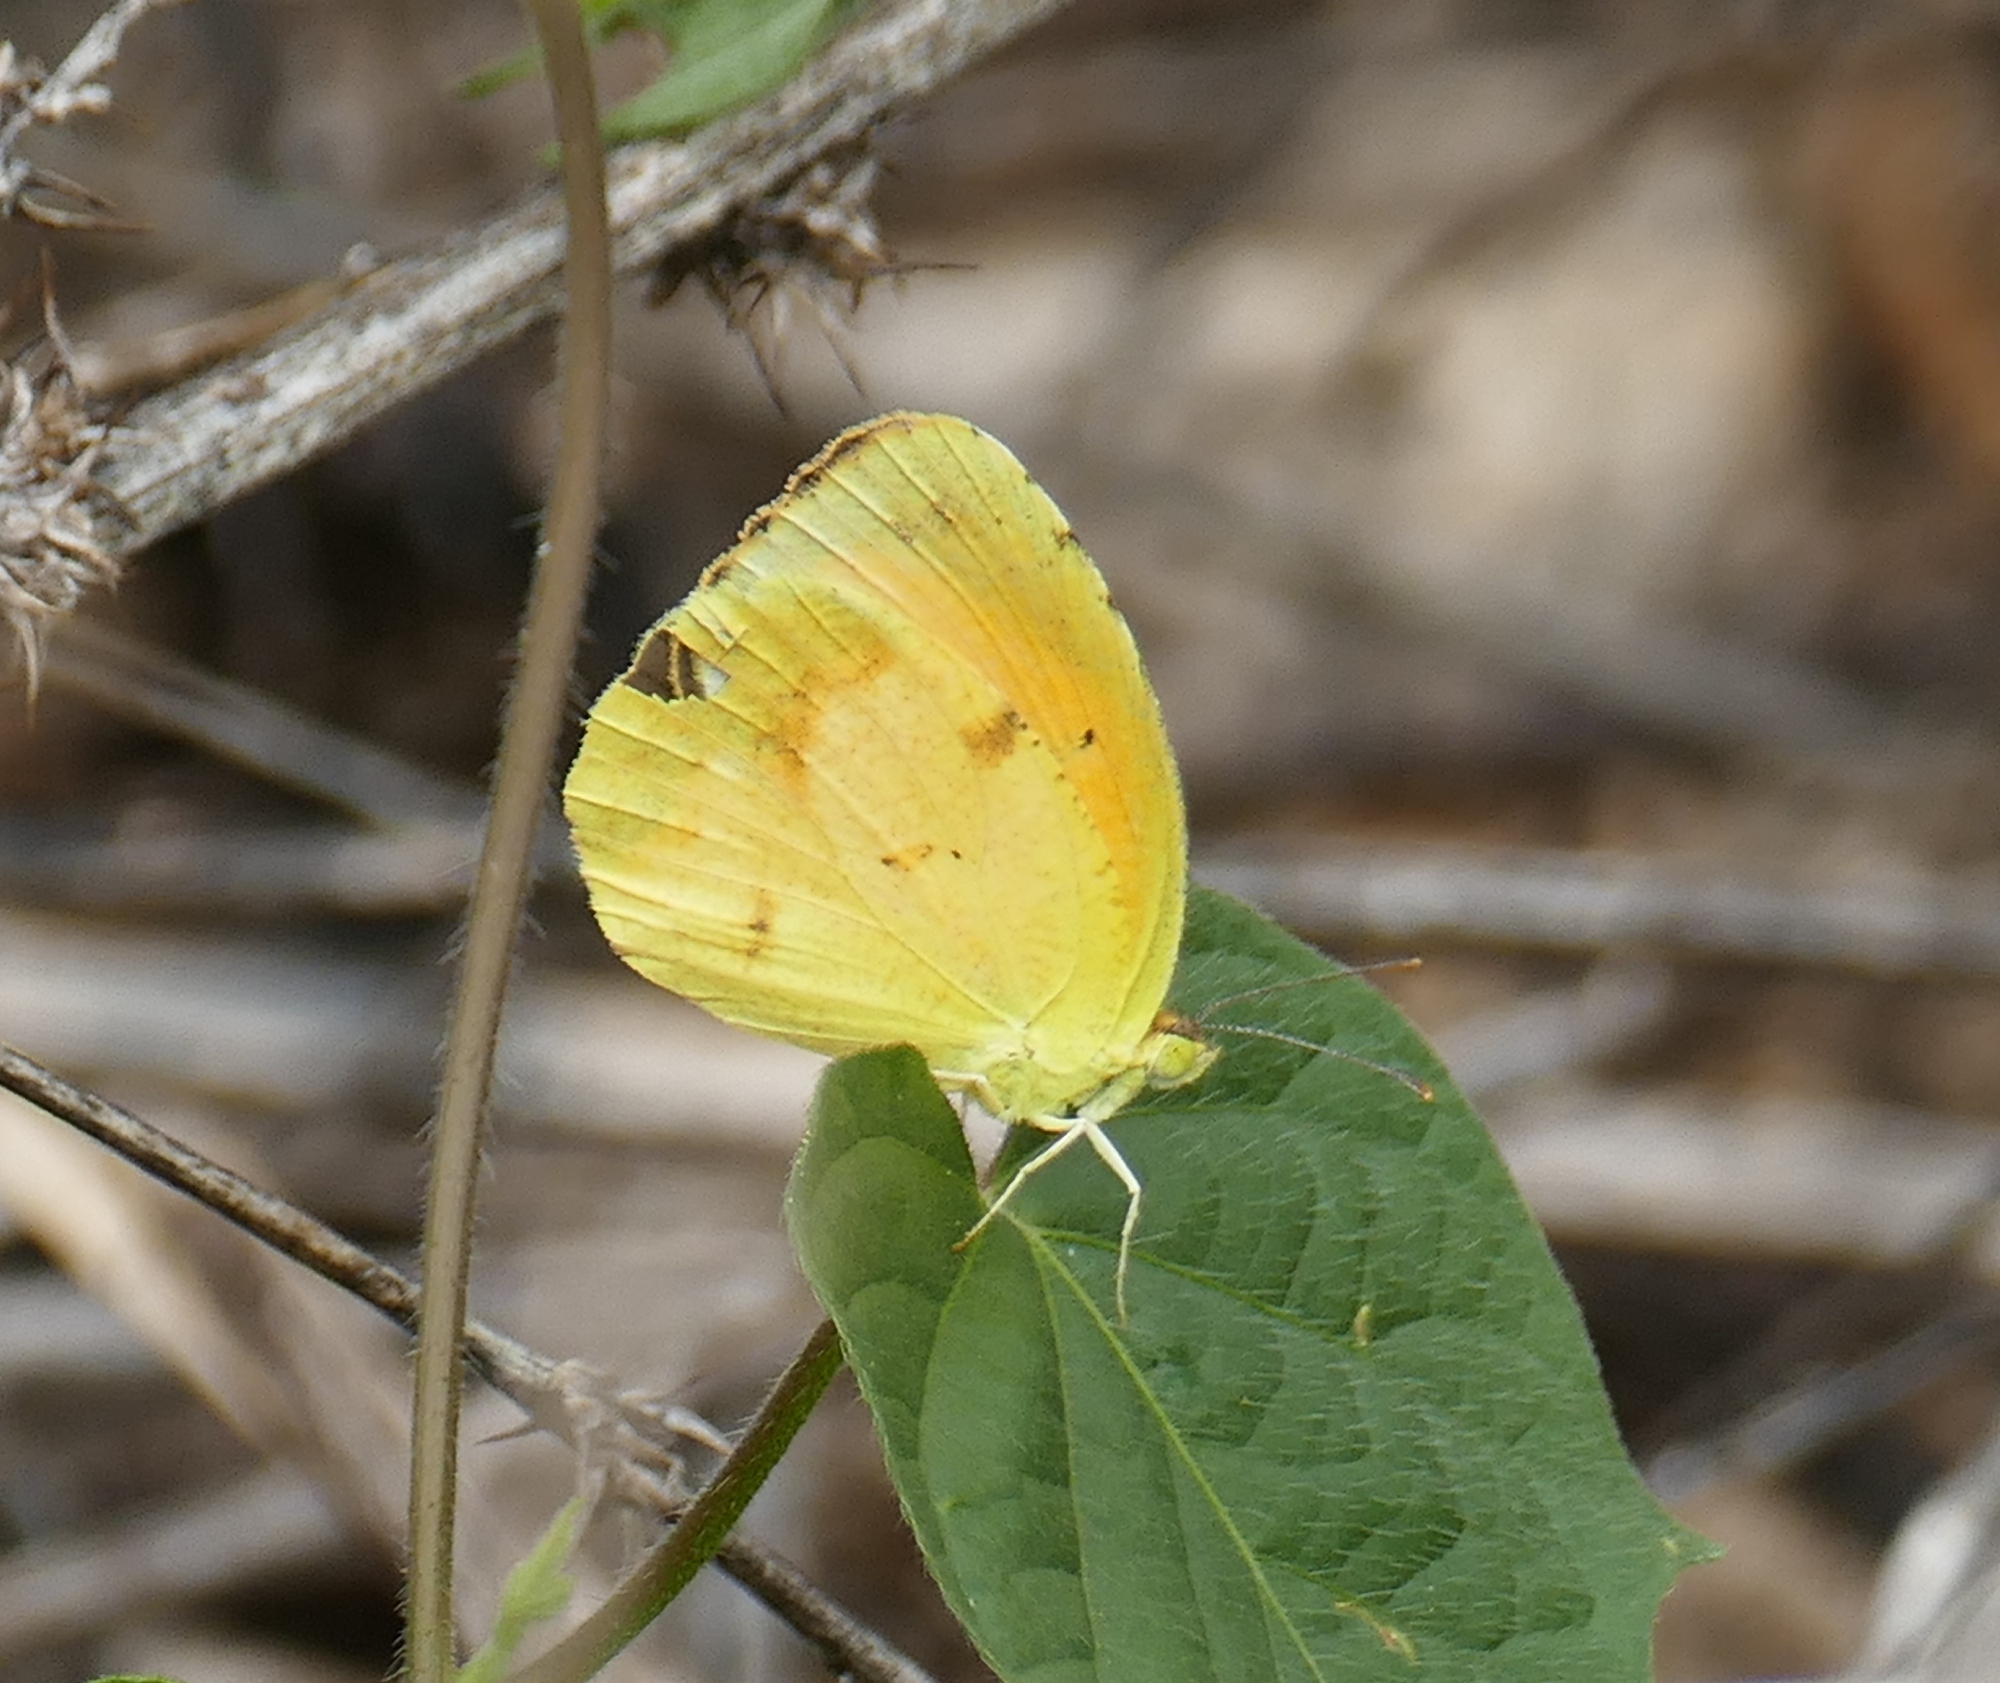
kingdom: Animalia
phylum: Arthropoda
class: Insecta
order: Lepidoptera
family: Pieridae
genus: Abaeis
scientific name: Abaeis nicippe
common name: Sleepy orange
